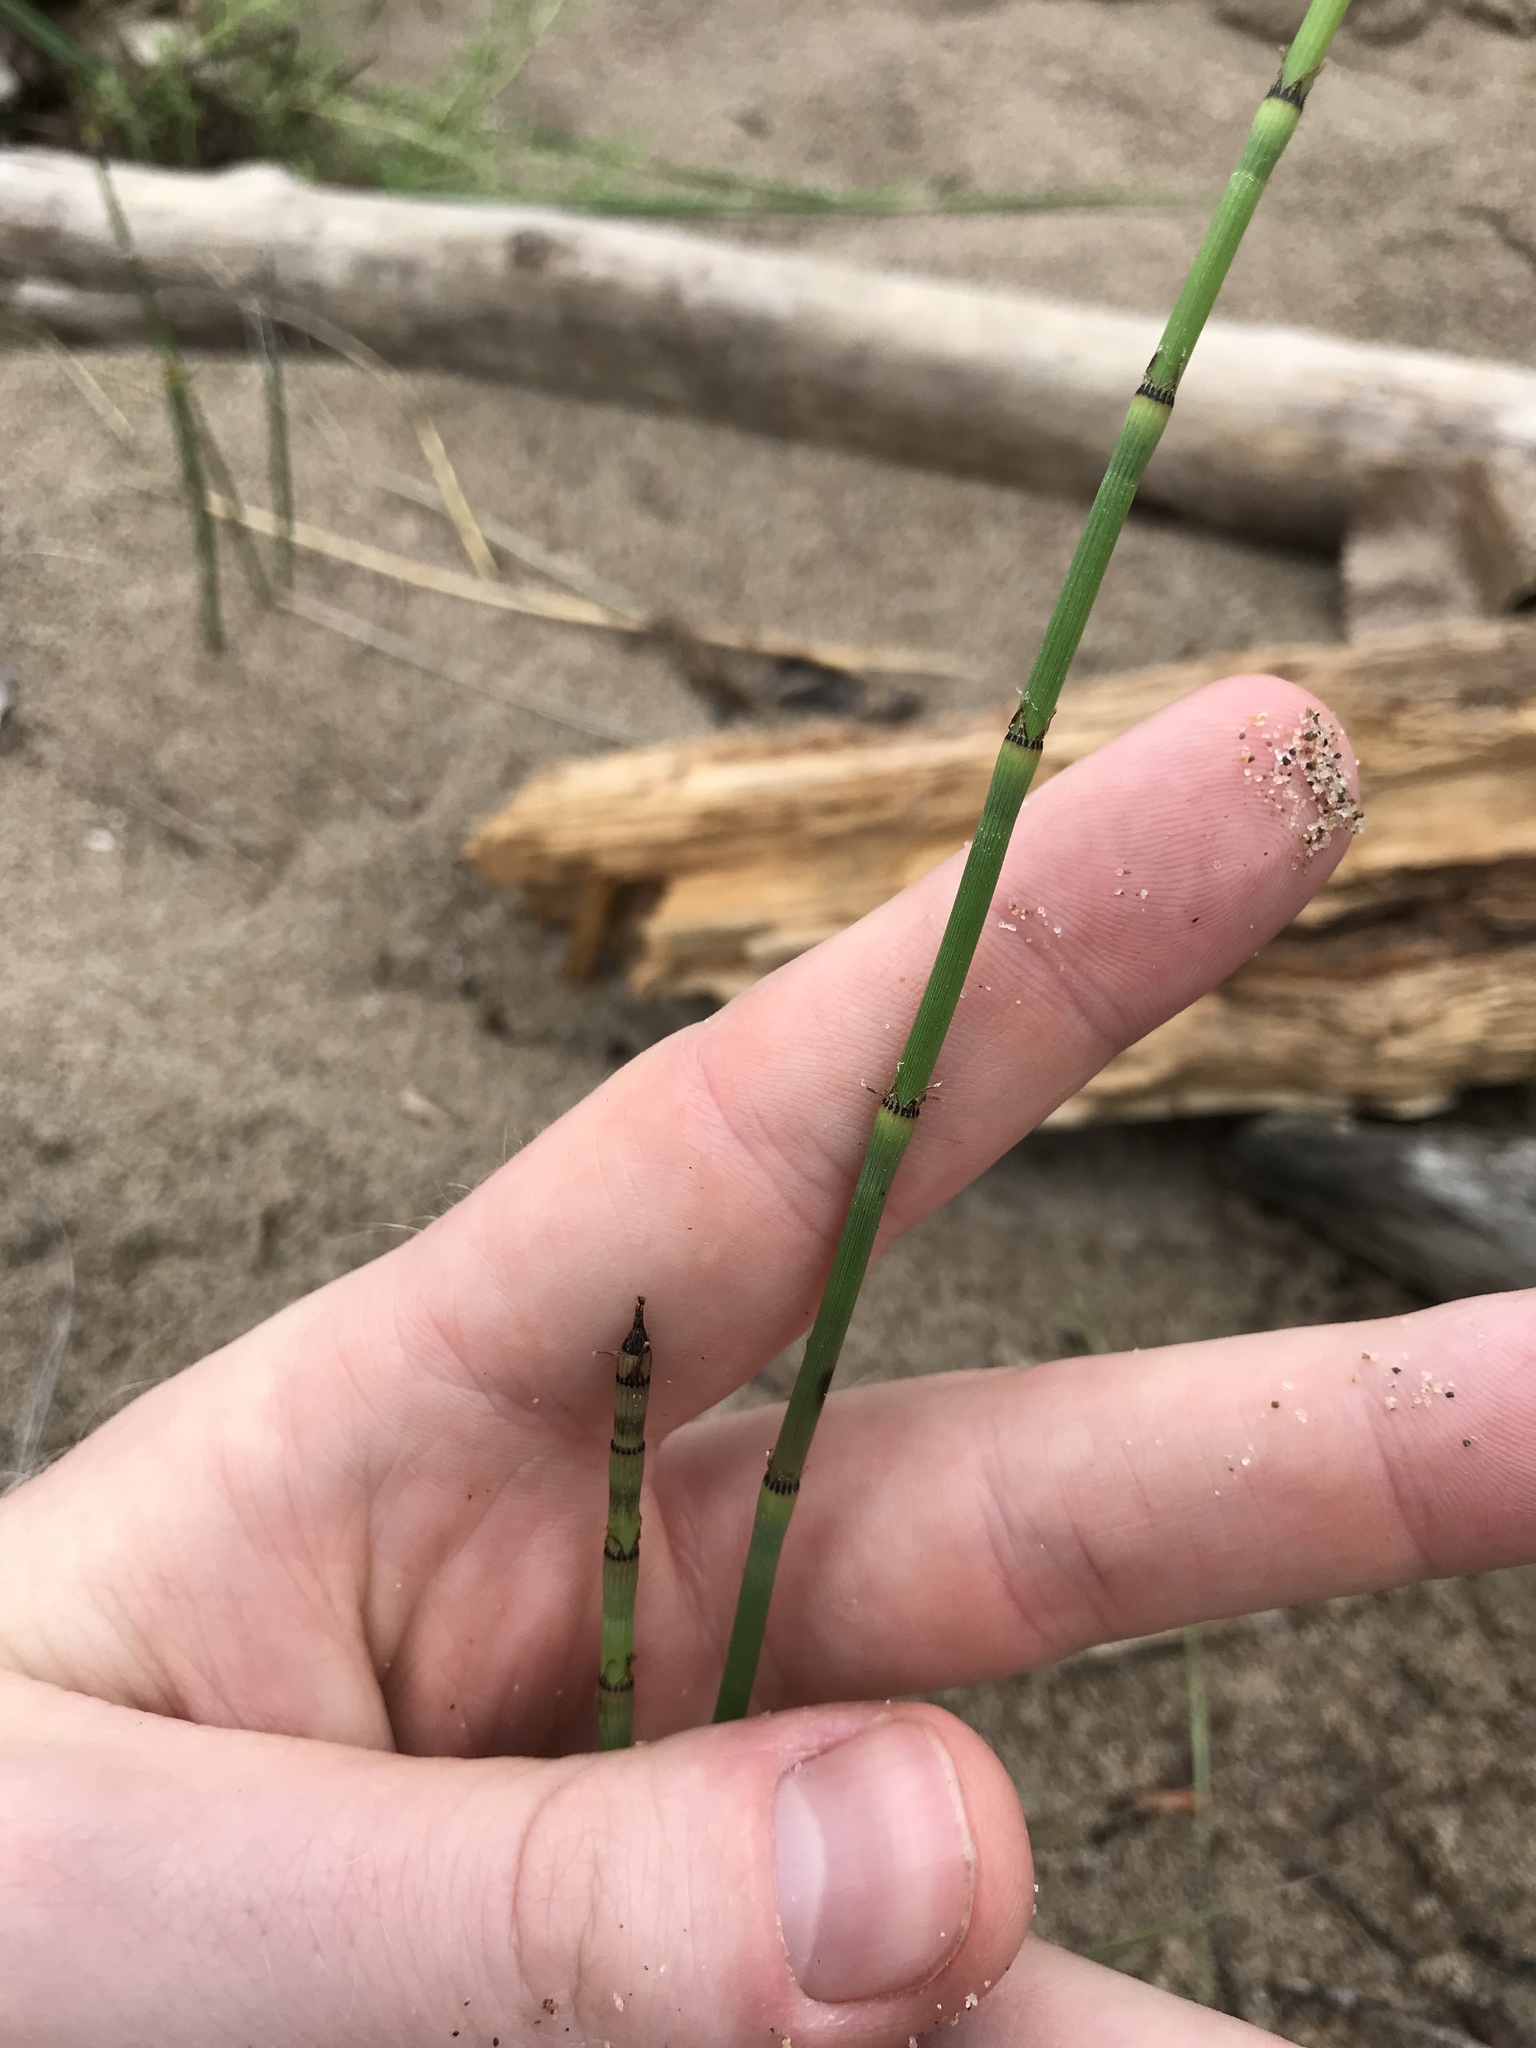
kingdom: Plantae
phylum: Tracheophyta
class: Polypodiopsida
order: Equisetales
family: Equisetaceae
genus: Equisetum
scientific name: Equisetum variegatum
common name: Variegated horsetail
